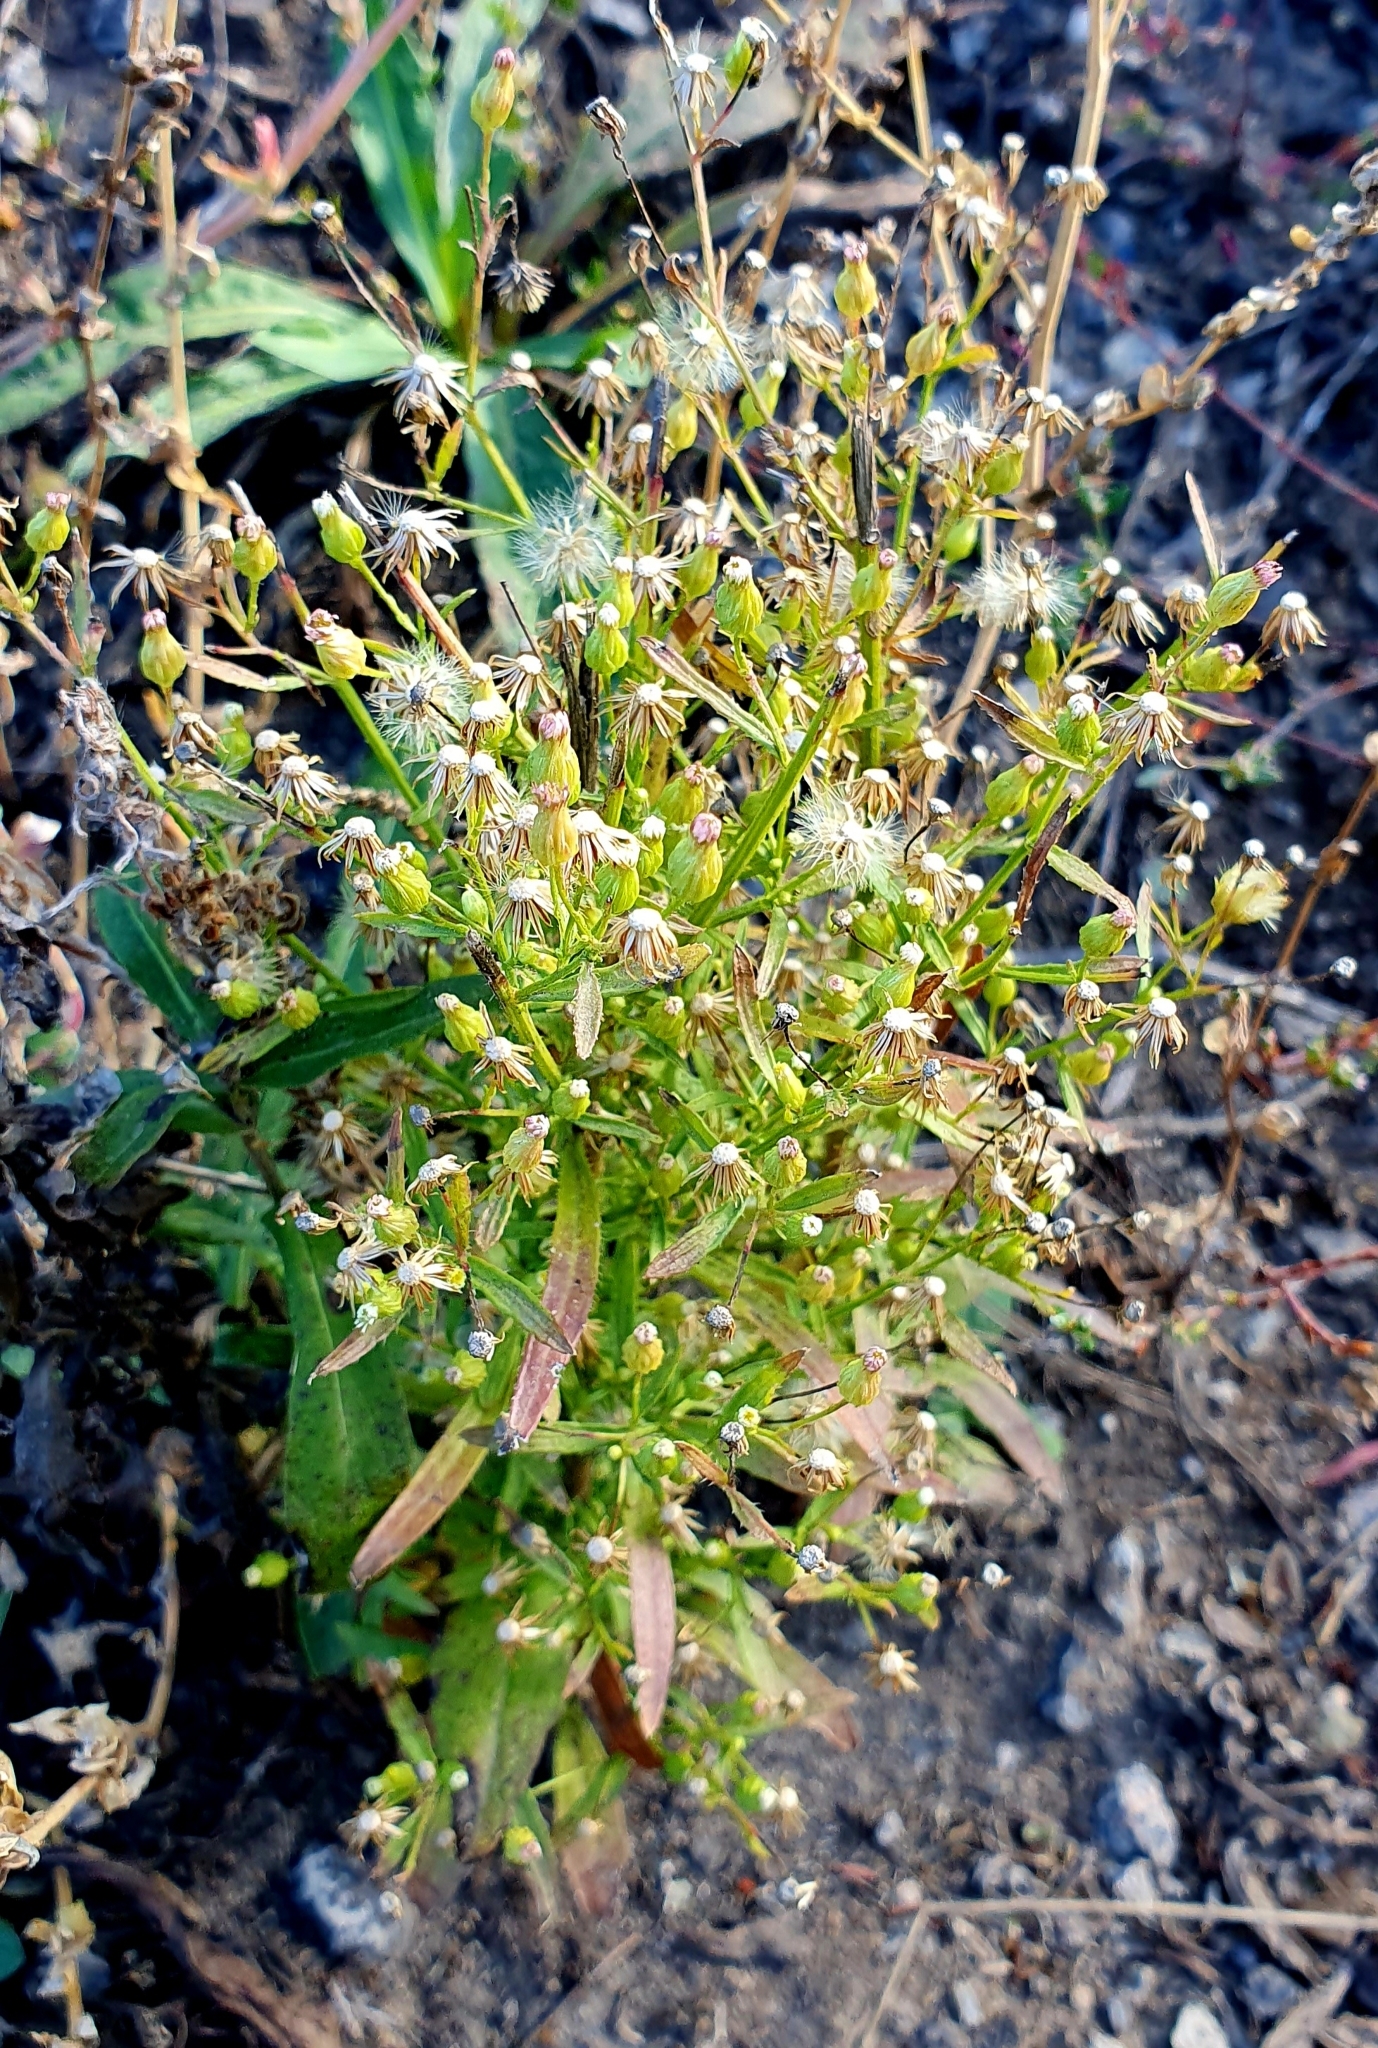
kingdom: Plantae
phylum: Tracheophyta
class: Magnoliopsida
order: Asterales
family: Asteraceae
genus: Erigeron
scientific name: Erigeron canadensis
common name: Canadian fleabane
